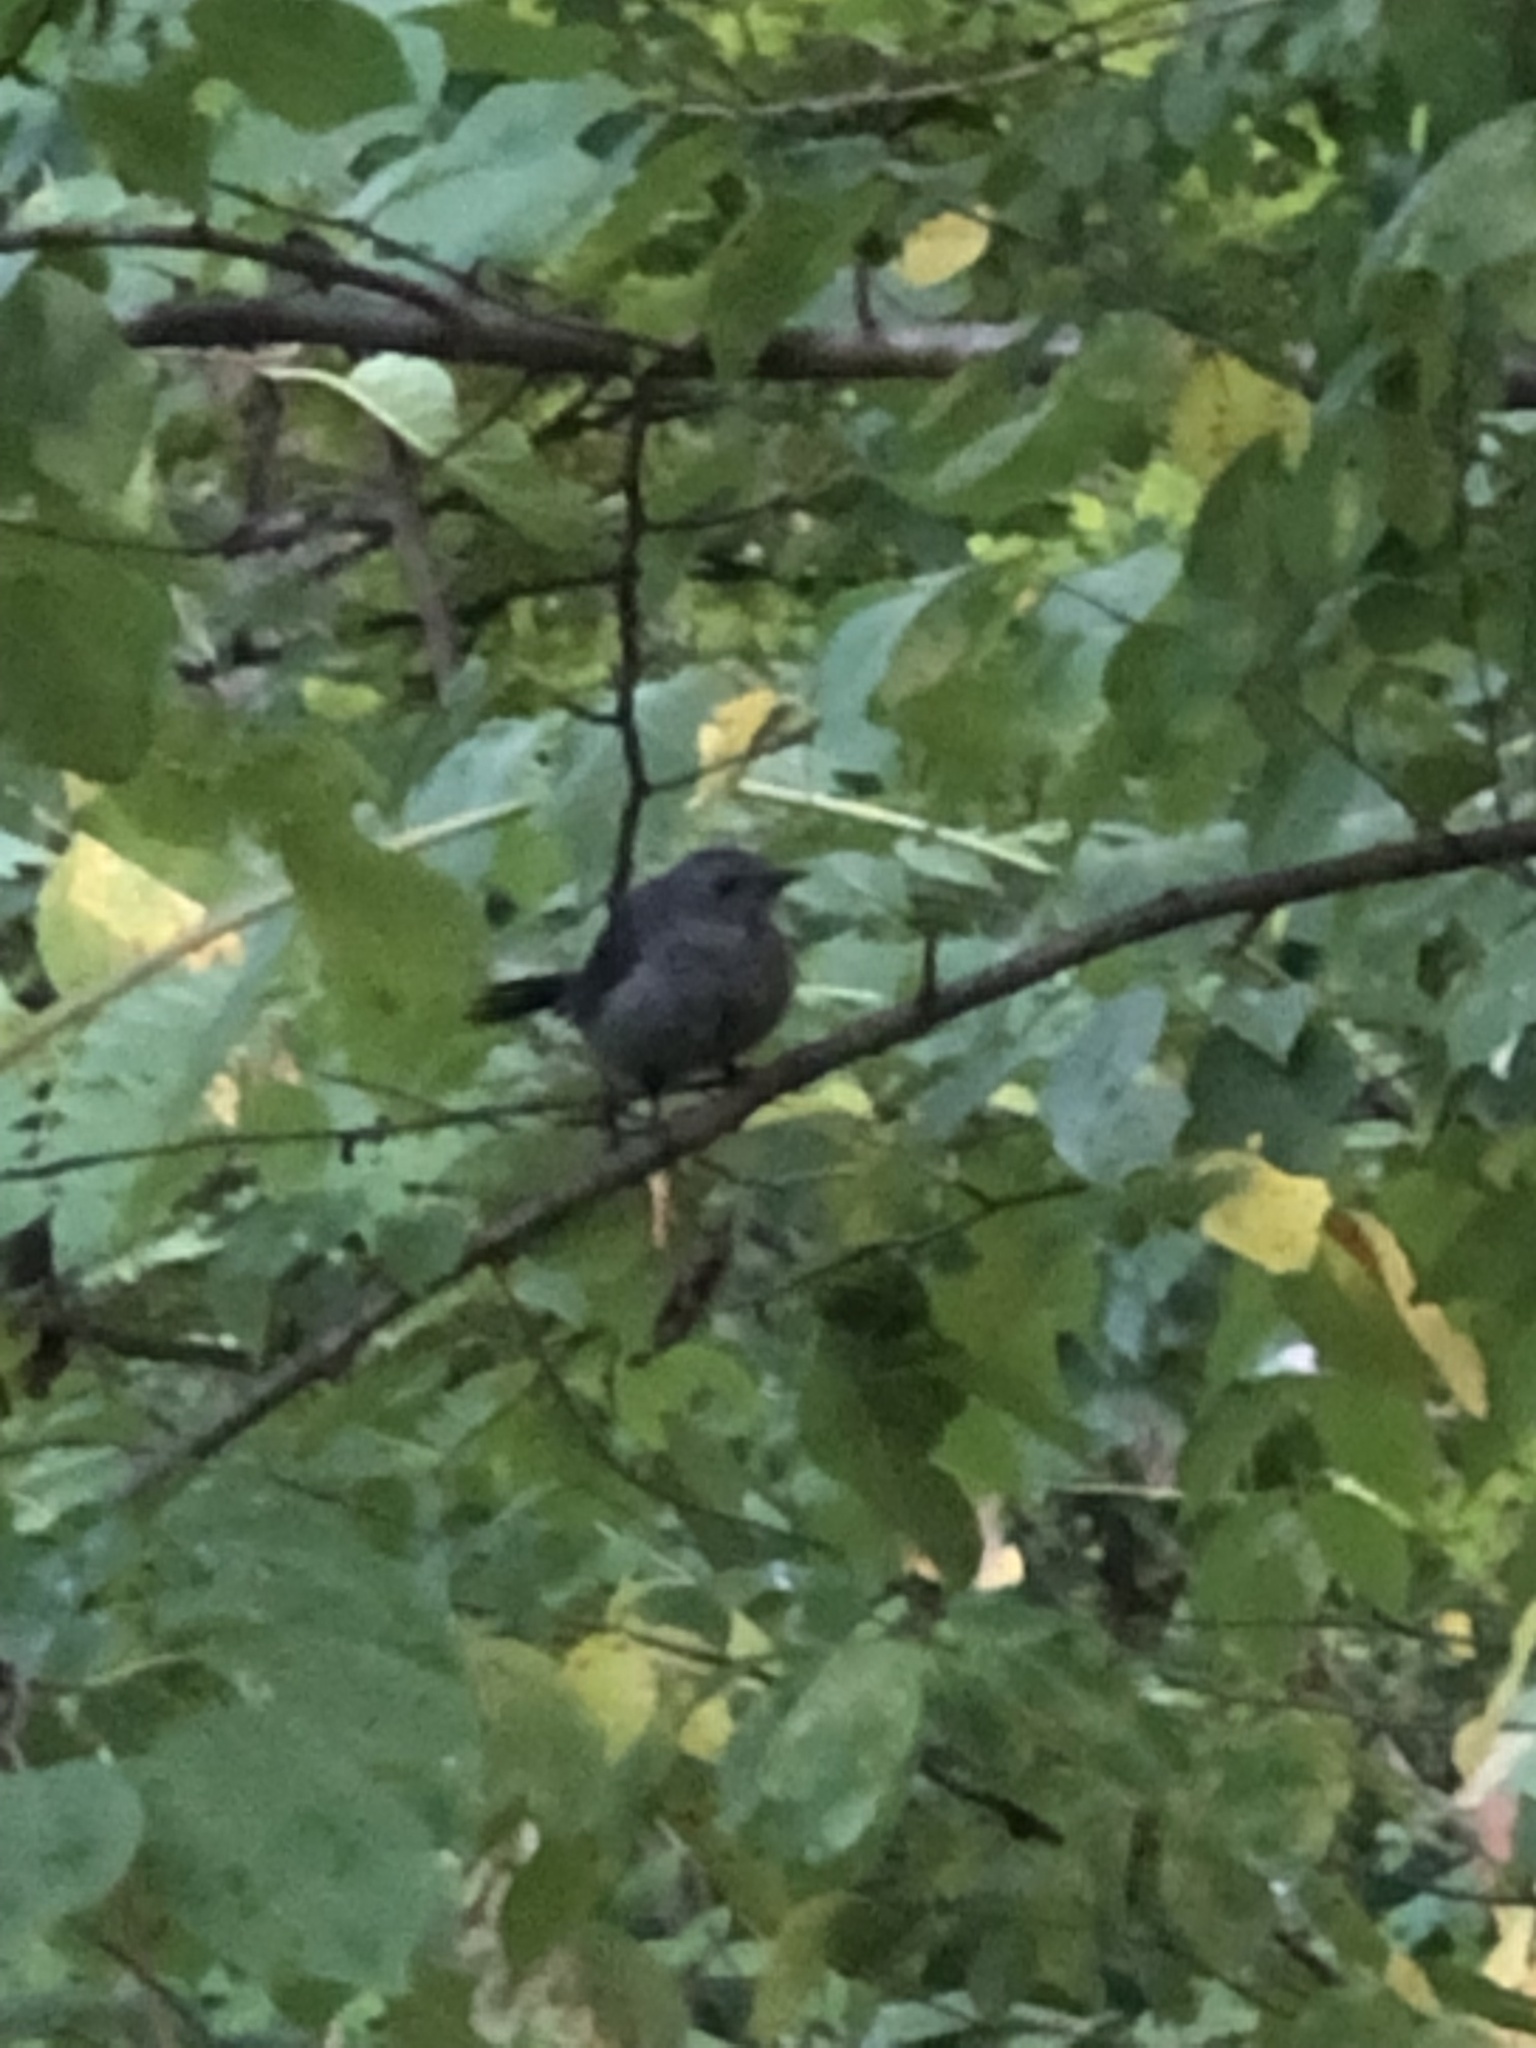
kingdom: Animalia
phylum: Chordata
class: Aves
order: Passeriformes
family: Mimidae
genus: Dumetella
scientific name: Dumetella carolinensis
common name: Gray catbird
